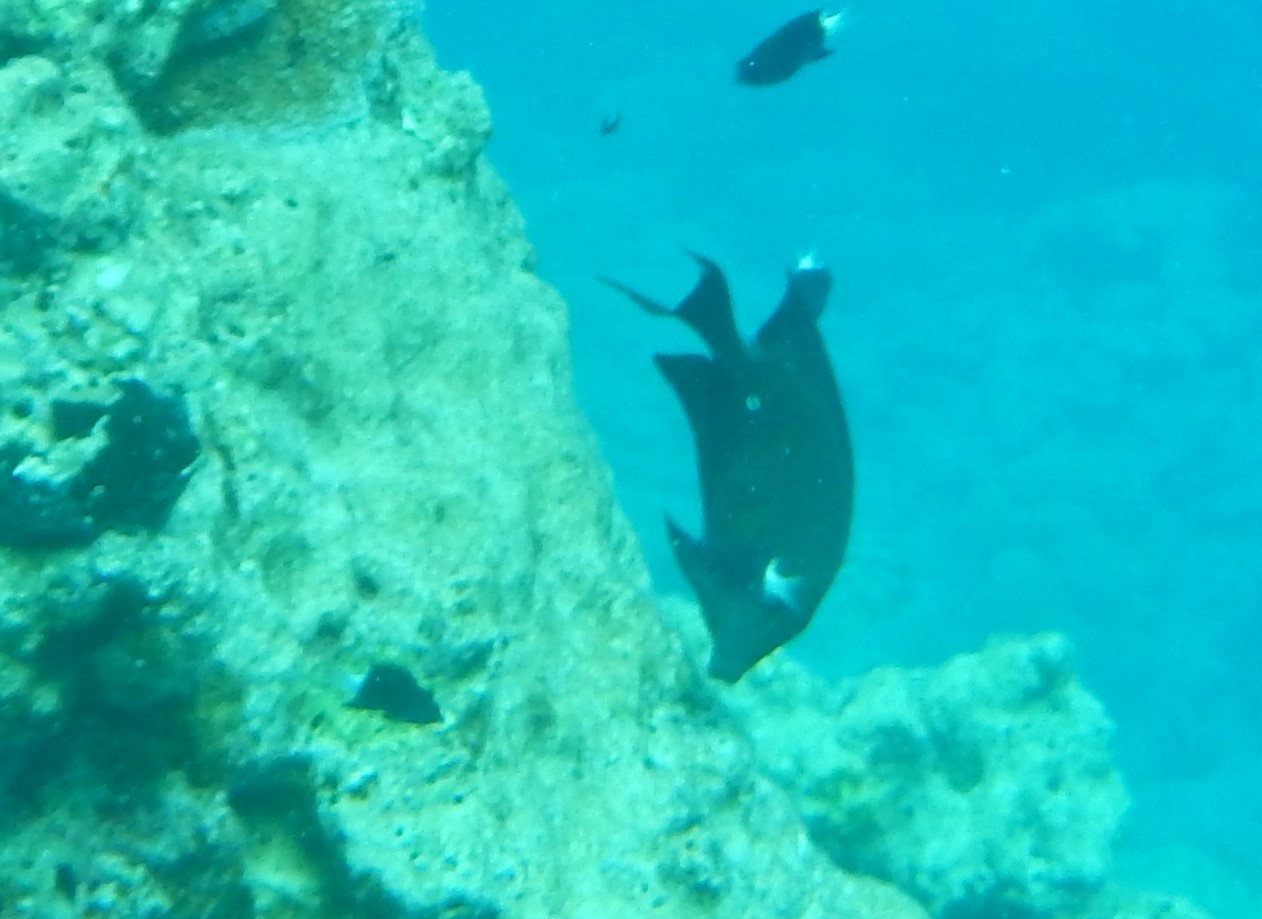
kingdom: Animalia
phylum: Chordata
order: Perciformes
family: Acanthuridae
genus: Ctenochaetus
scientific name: Ctenochaetus striatus
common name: Bristle-toothed surgeonfish
